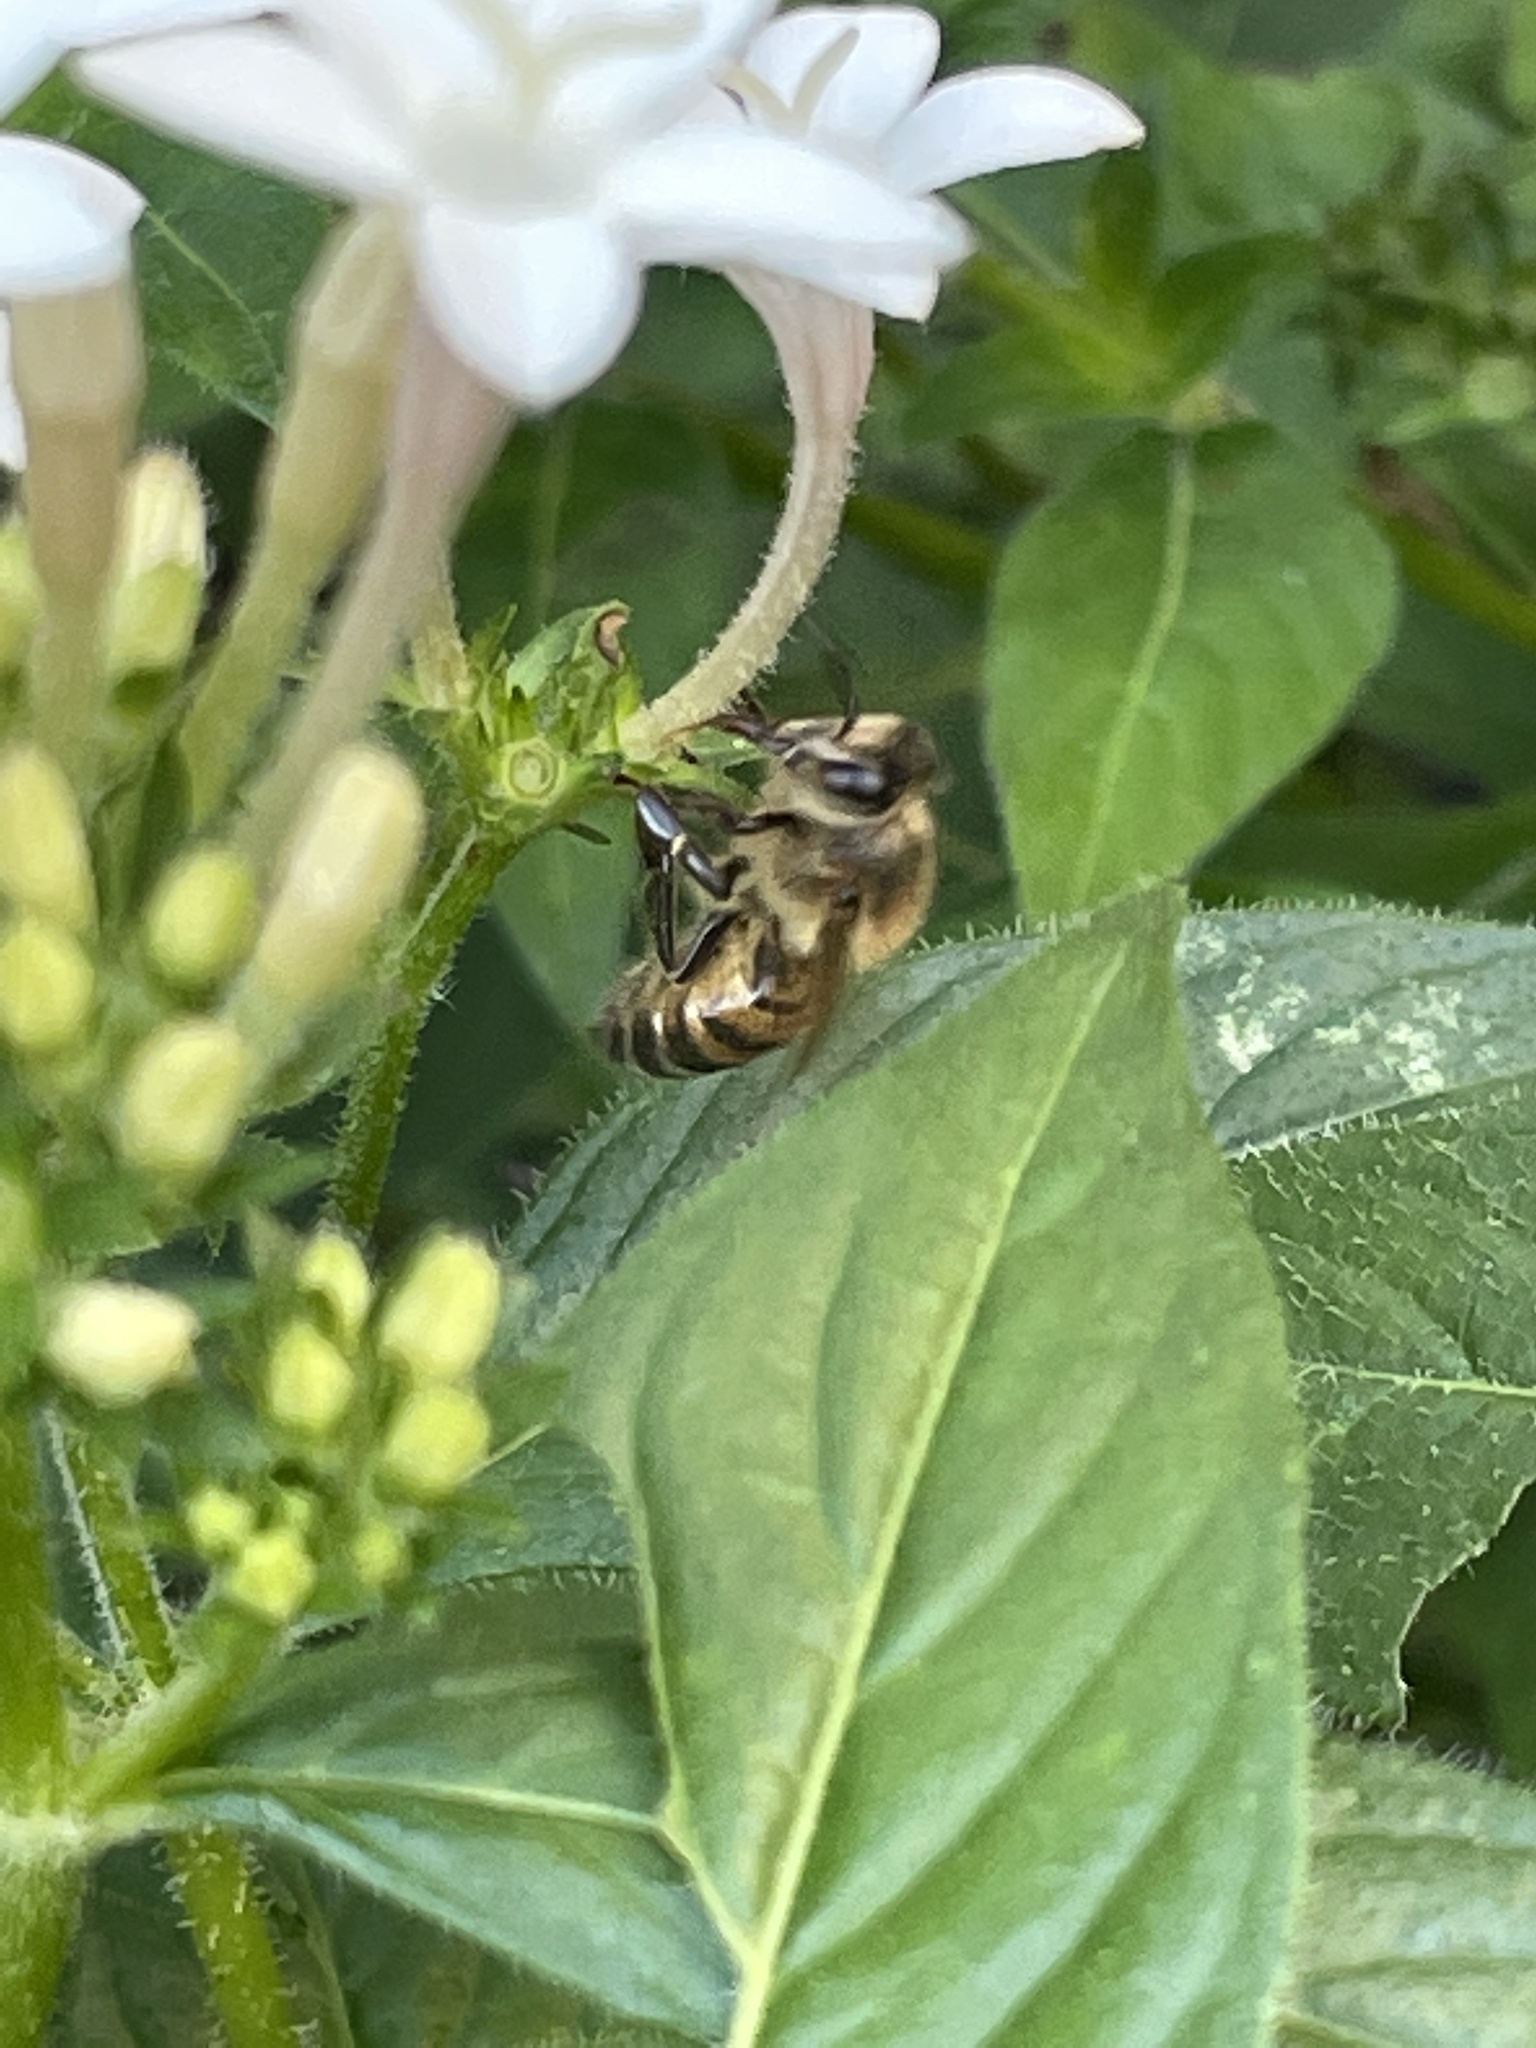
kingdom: Animalia
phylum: Arthropoda
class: Insecta
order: Hymenoptera
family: Apidae
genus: Apis
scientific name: Apis mellifera
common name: Honey bee
